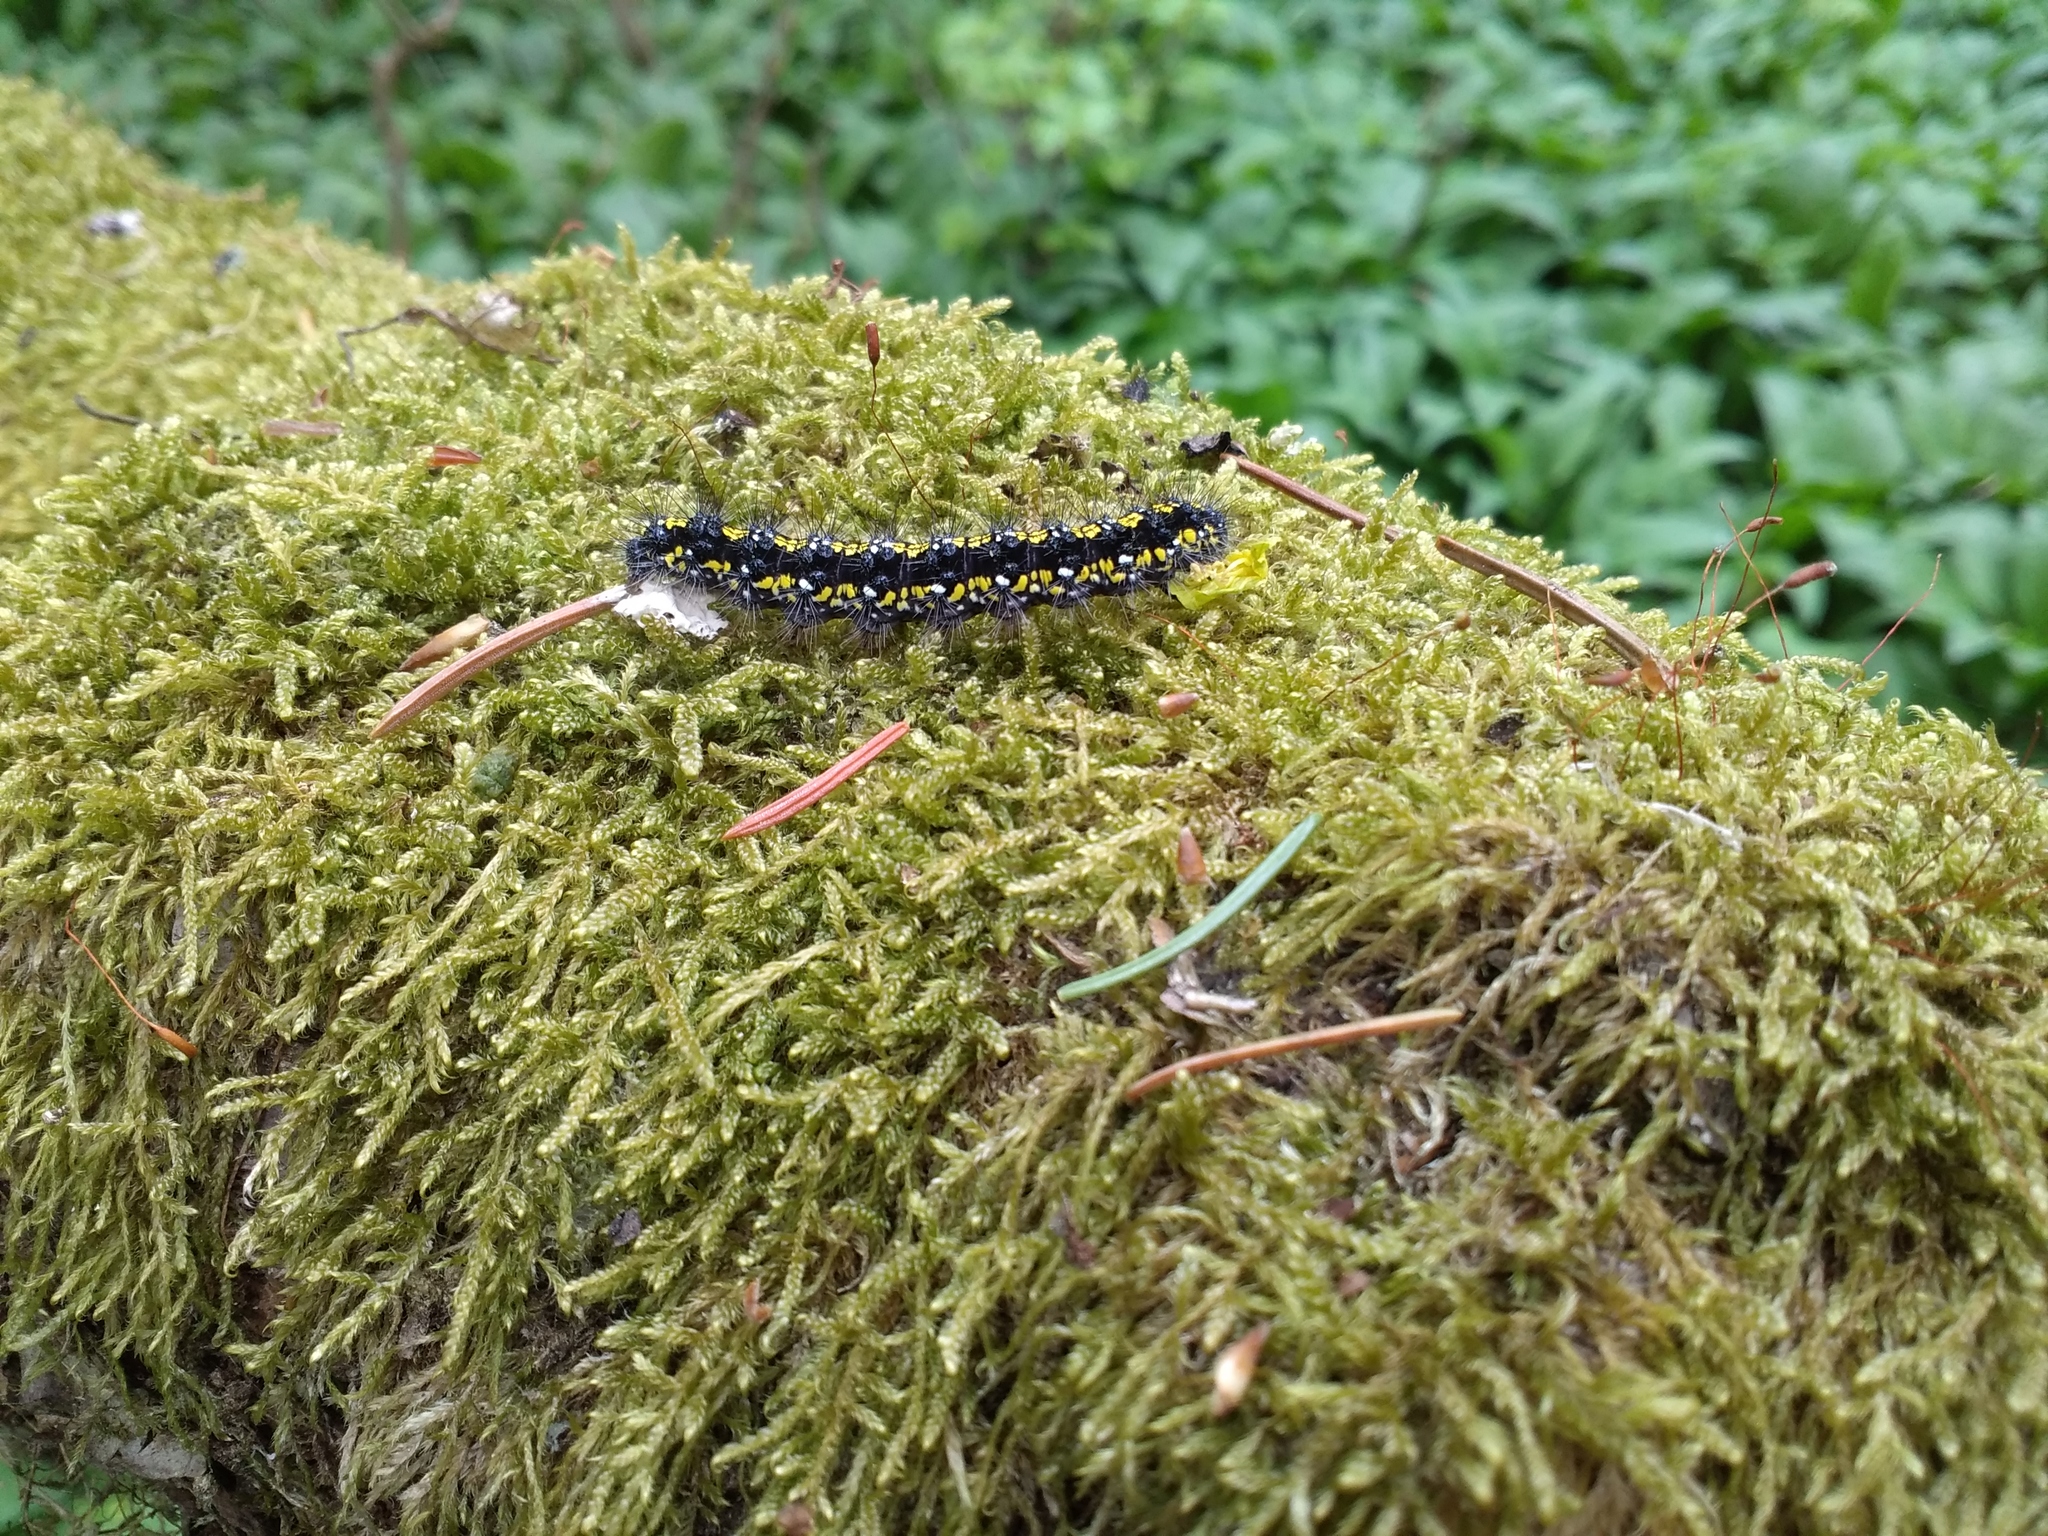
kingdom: Animalia
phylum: Arthropoda
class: Insecta
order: Lepidoptera
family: Erebidae
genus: Callimorpha
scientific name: Callimorpha dominula
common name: Scarlet tiger
